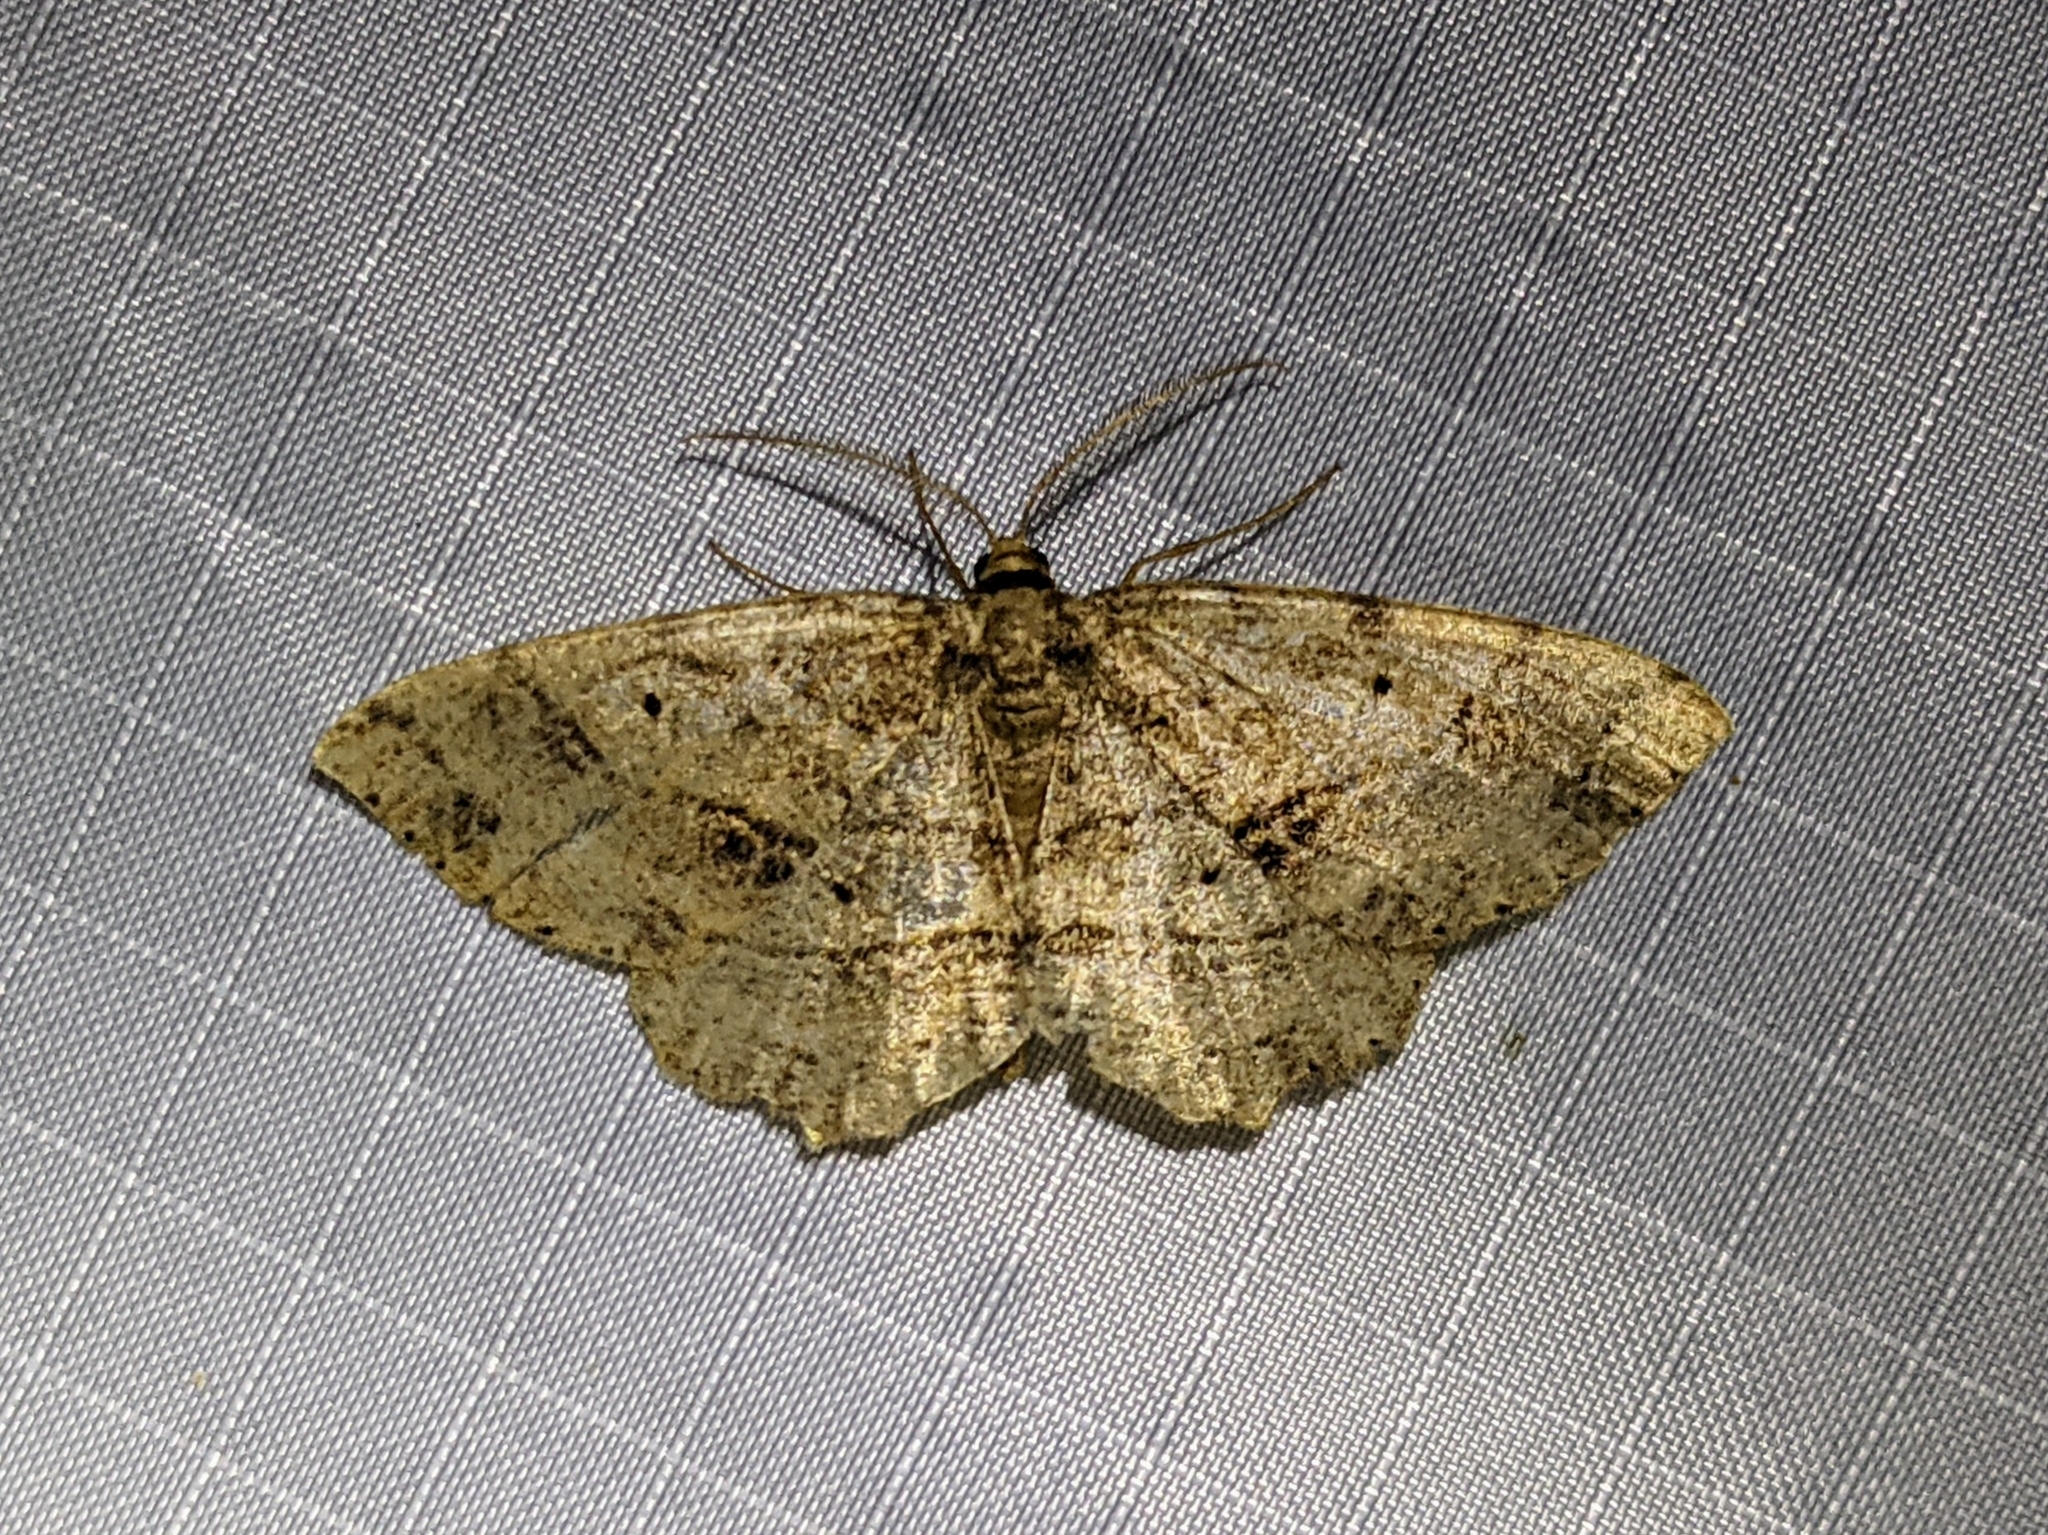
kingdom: Animalia
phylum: Arthropoda
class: Insecta
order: Lepidoptera
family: Geometridae
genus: Melanolophia
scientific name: Melanolophia signataria
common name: Signate melanolophia
